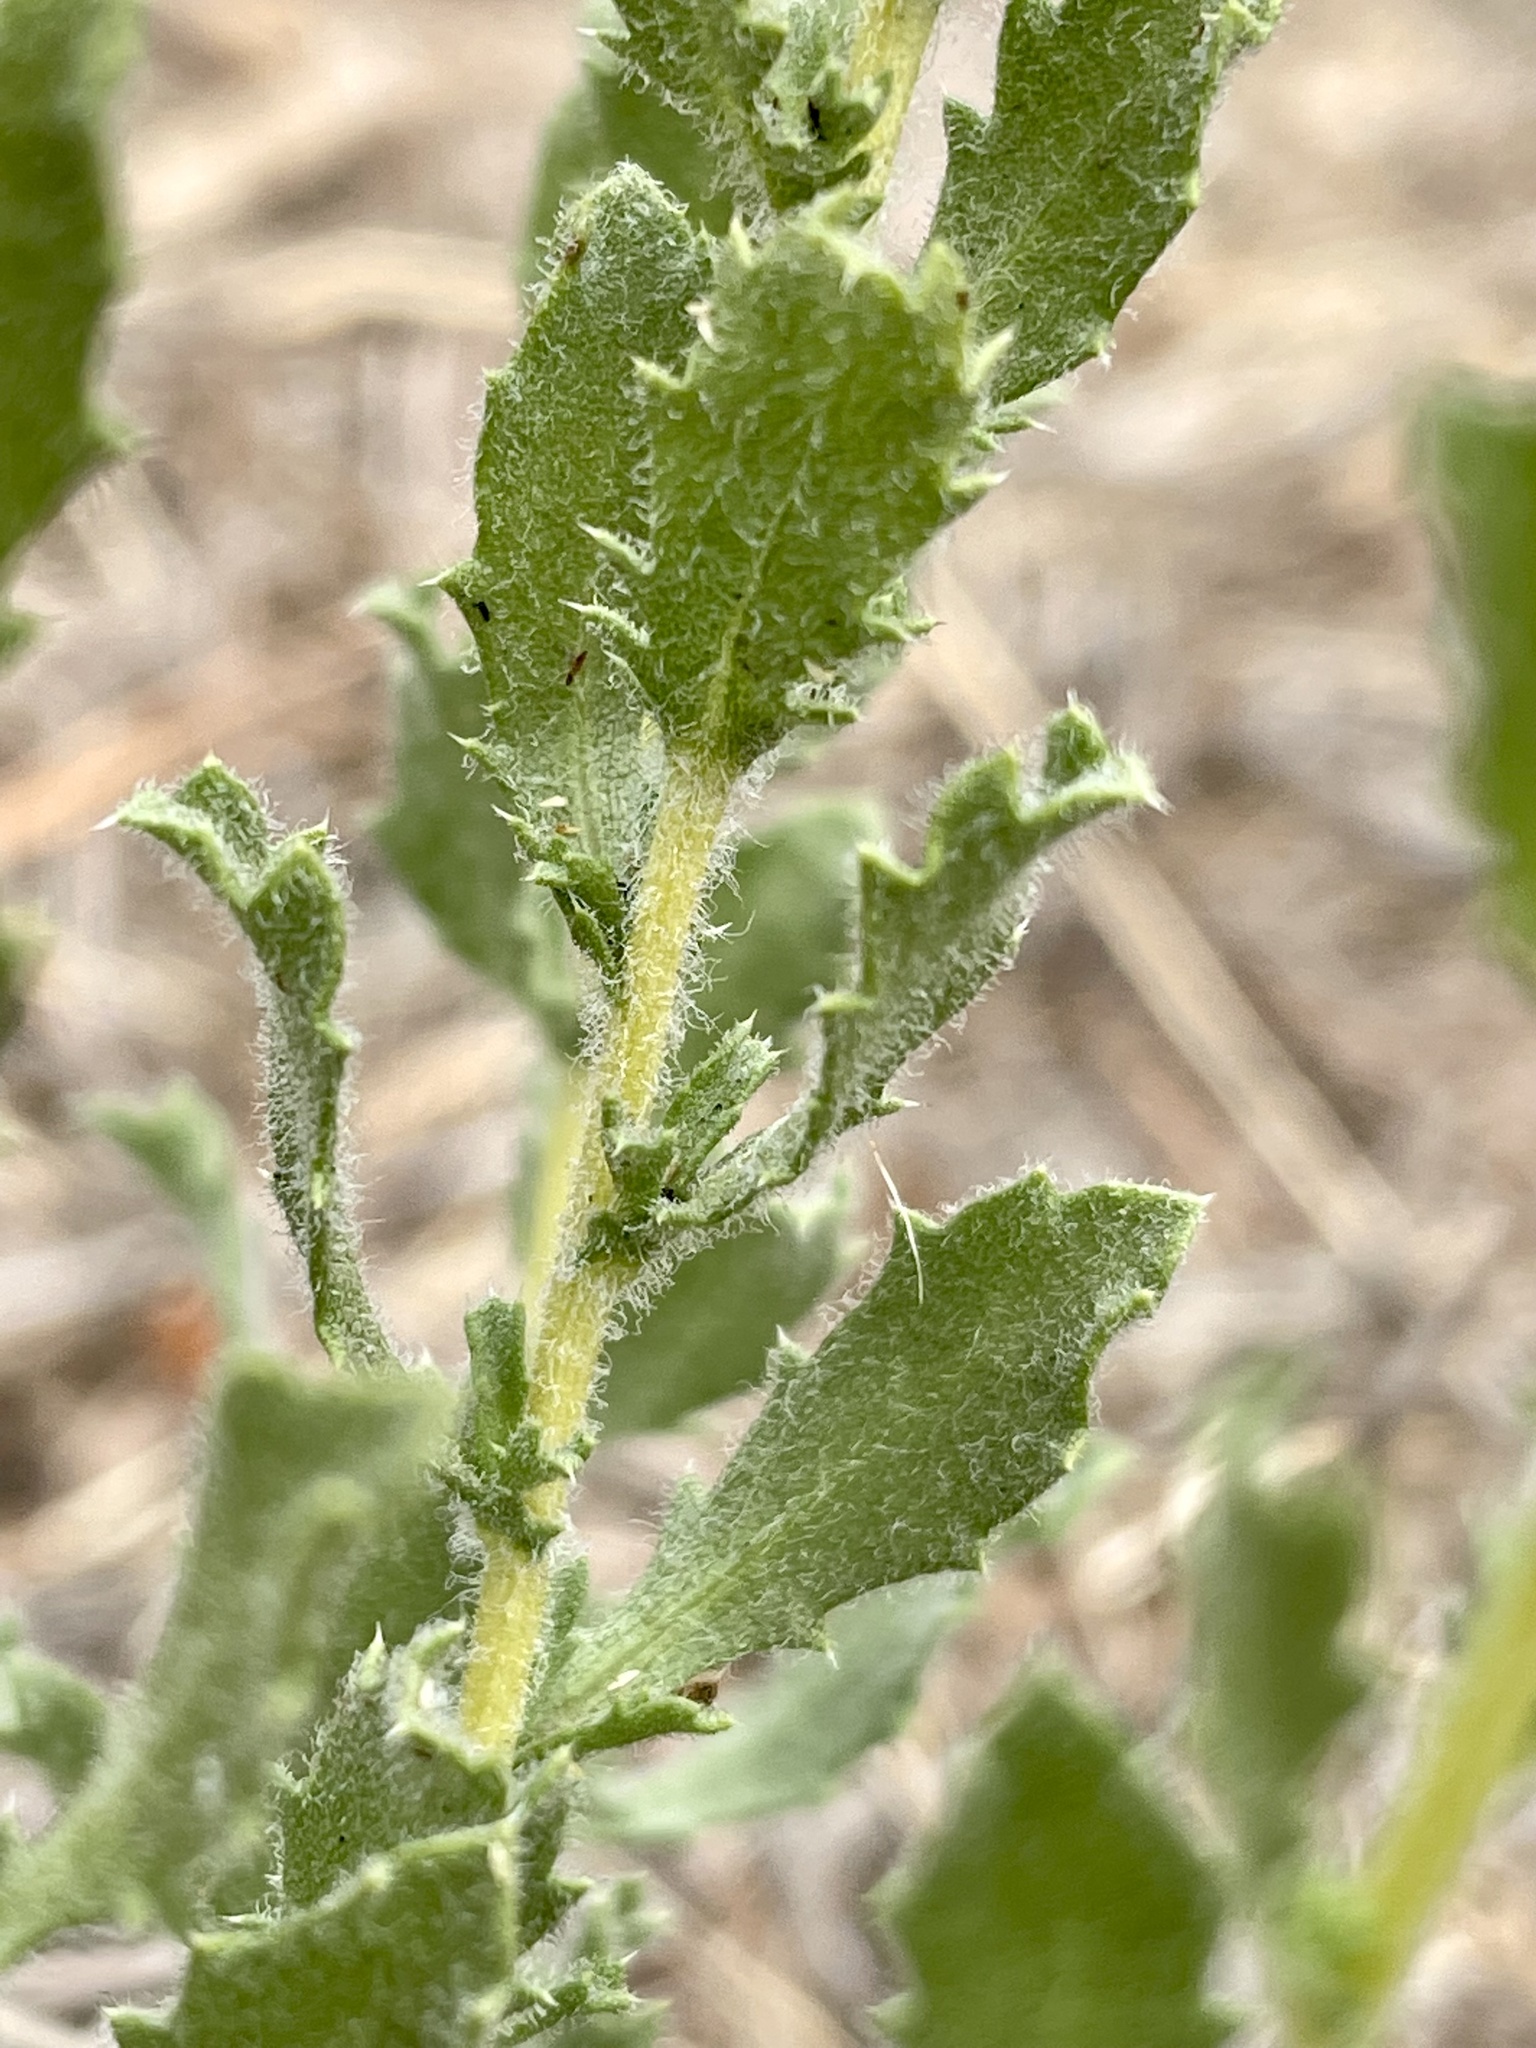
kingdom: Plantae
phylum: Tracheophyta
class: Magnoliopsida
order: Asterales
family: Asteraceae
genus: Isocoma
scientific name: Isocoma menziesii
